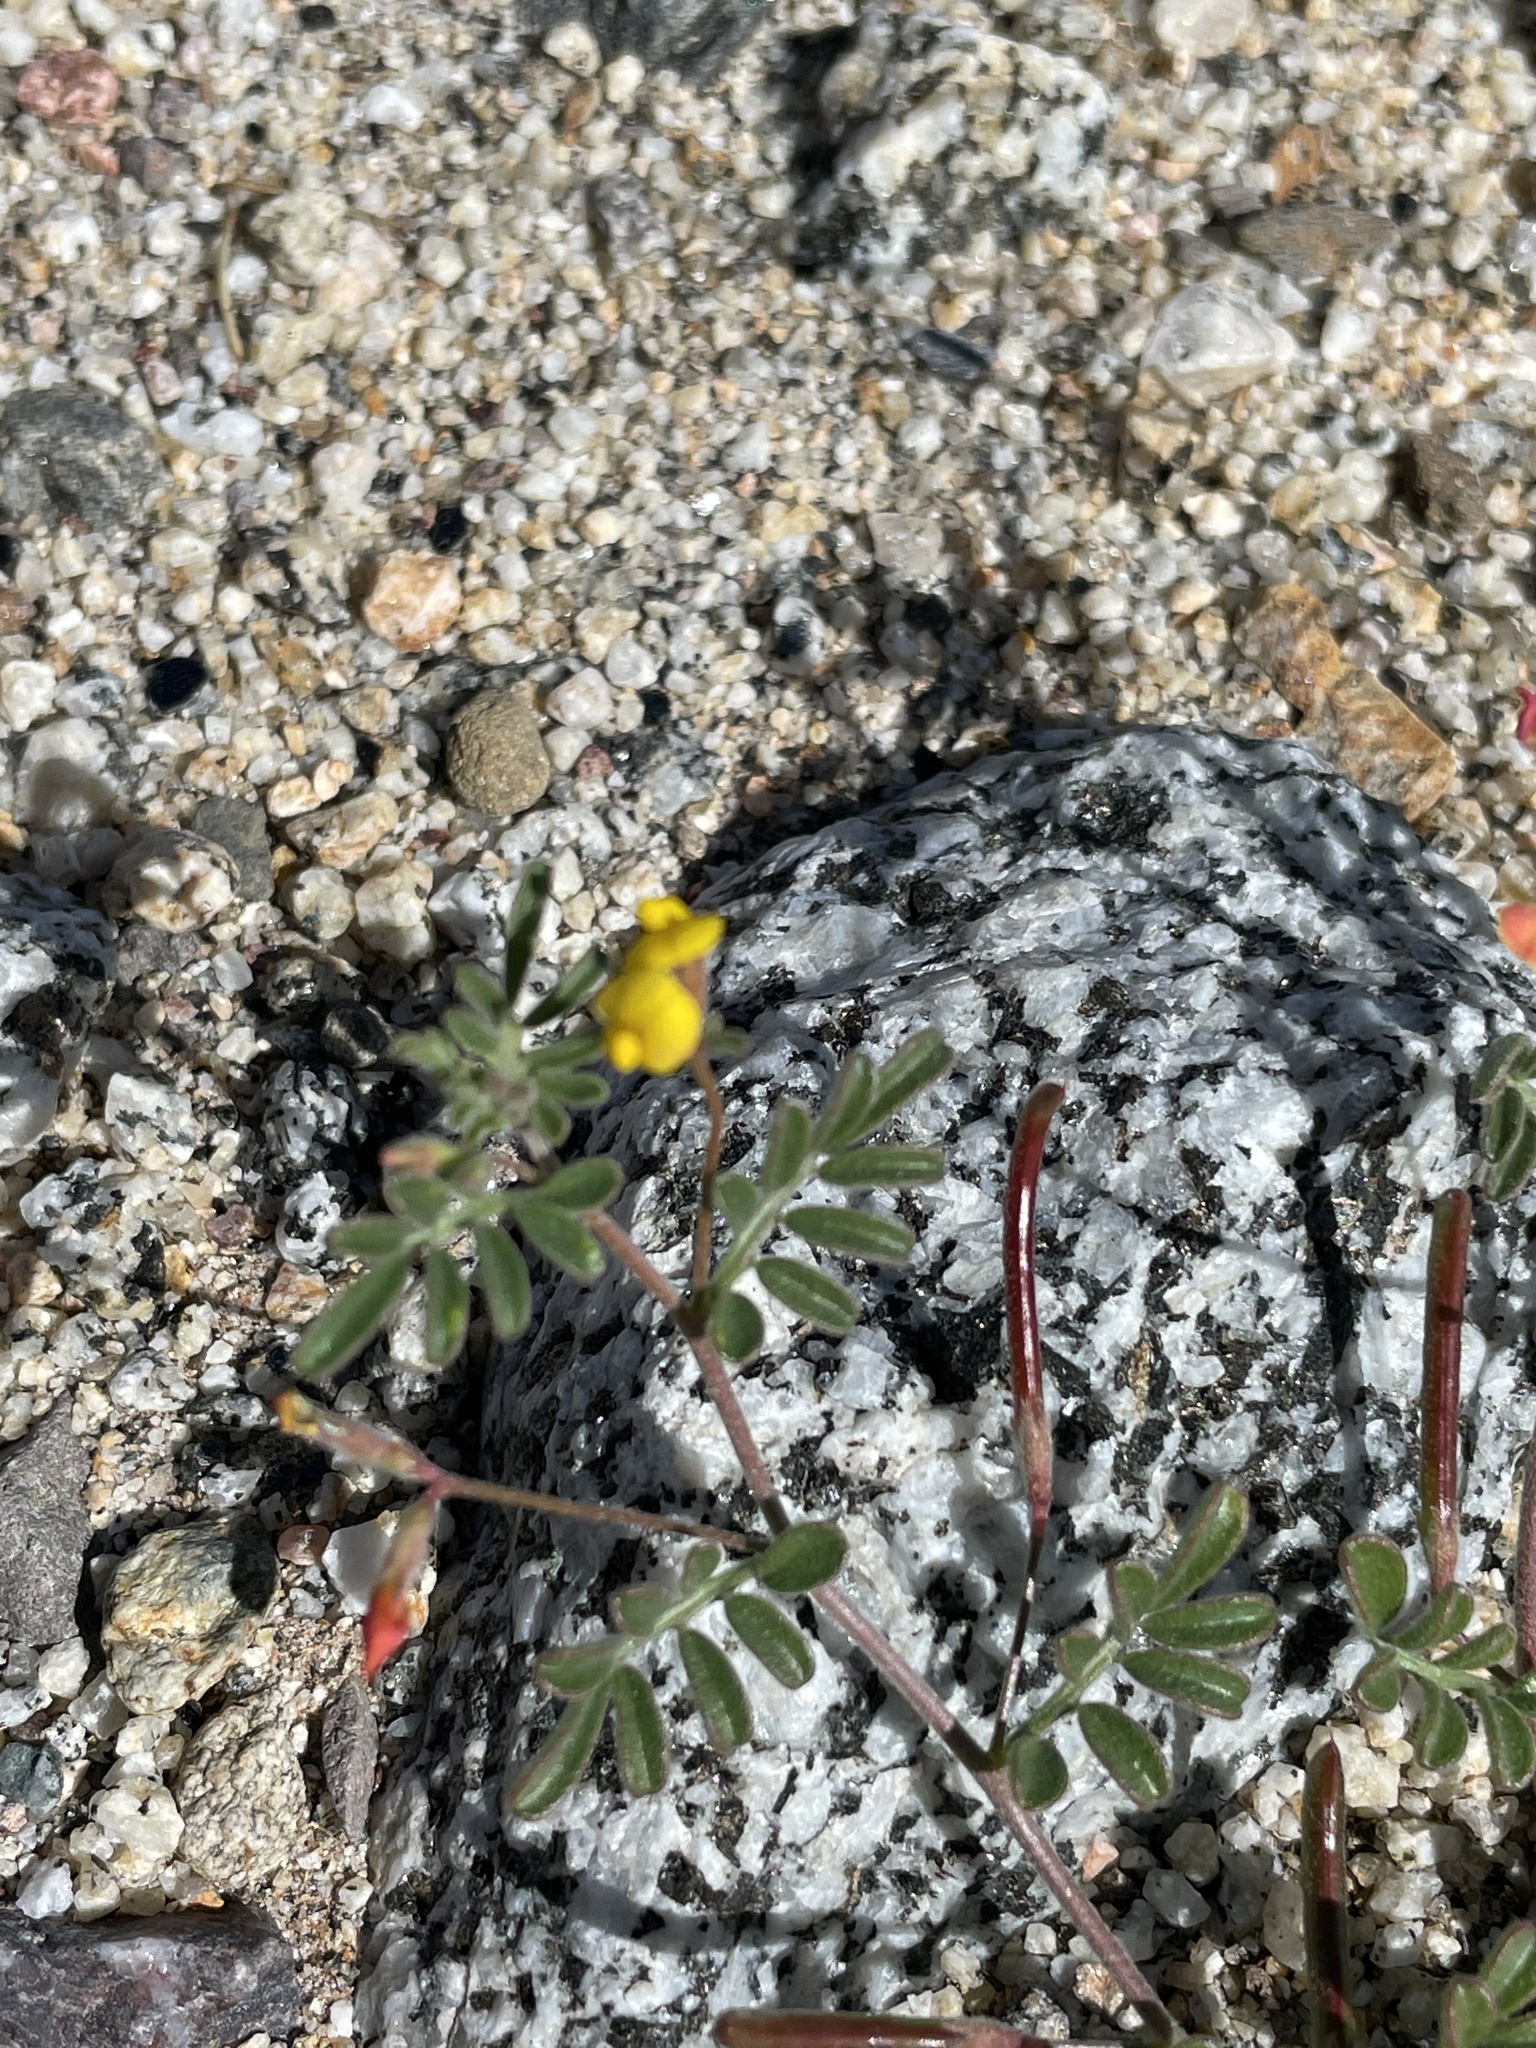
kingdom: Plantae
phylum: Tracheophyta
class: Magnoliopsida
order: Fabales
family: Fabaceae
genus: Acmispon
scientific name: Acmispon strigosus
